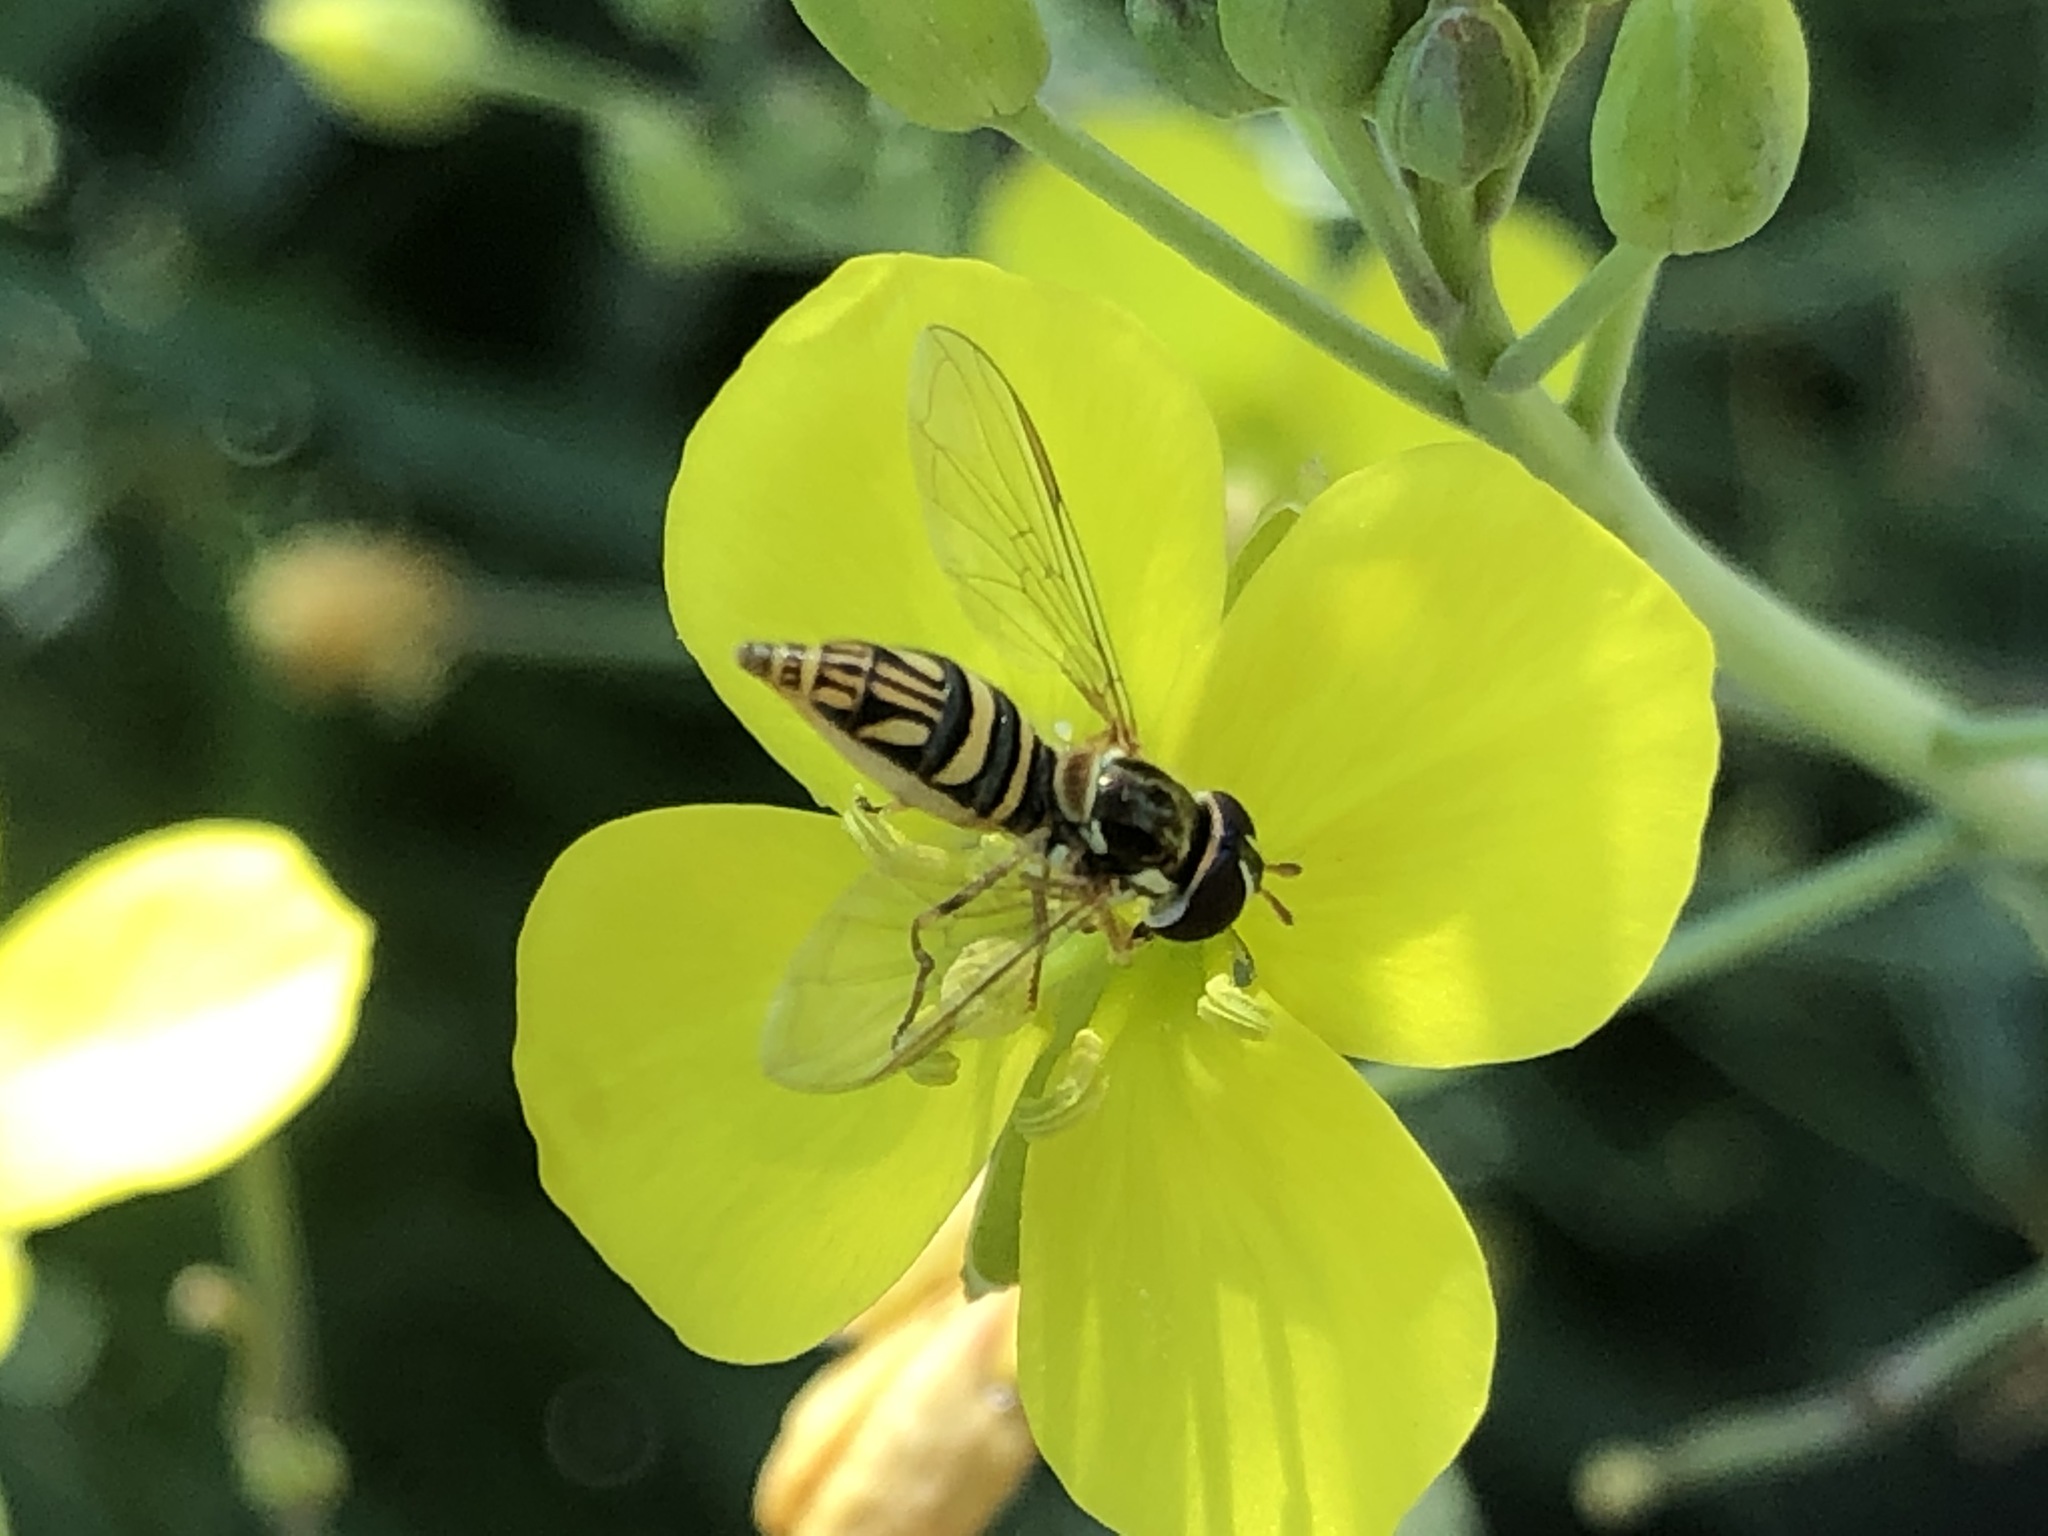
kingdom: Animalia
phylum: Arthropoda
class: Insecta
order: Diptera
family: Syrphidae
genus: Allograpta
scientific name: Allograpta obliqua
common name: Common oblique syrphid
